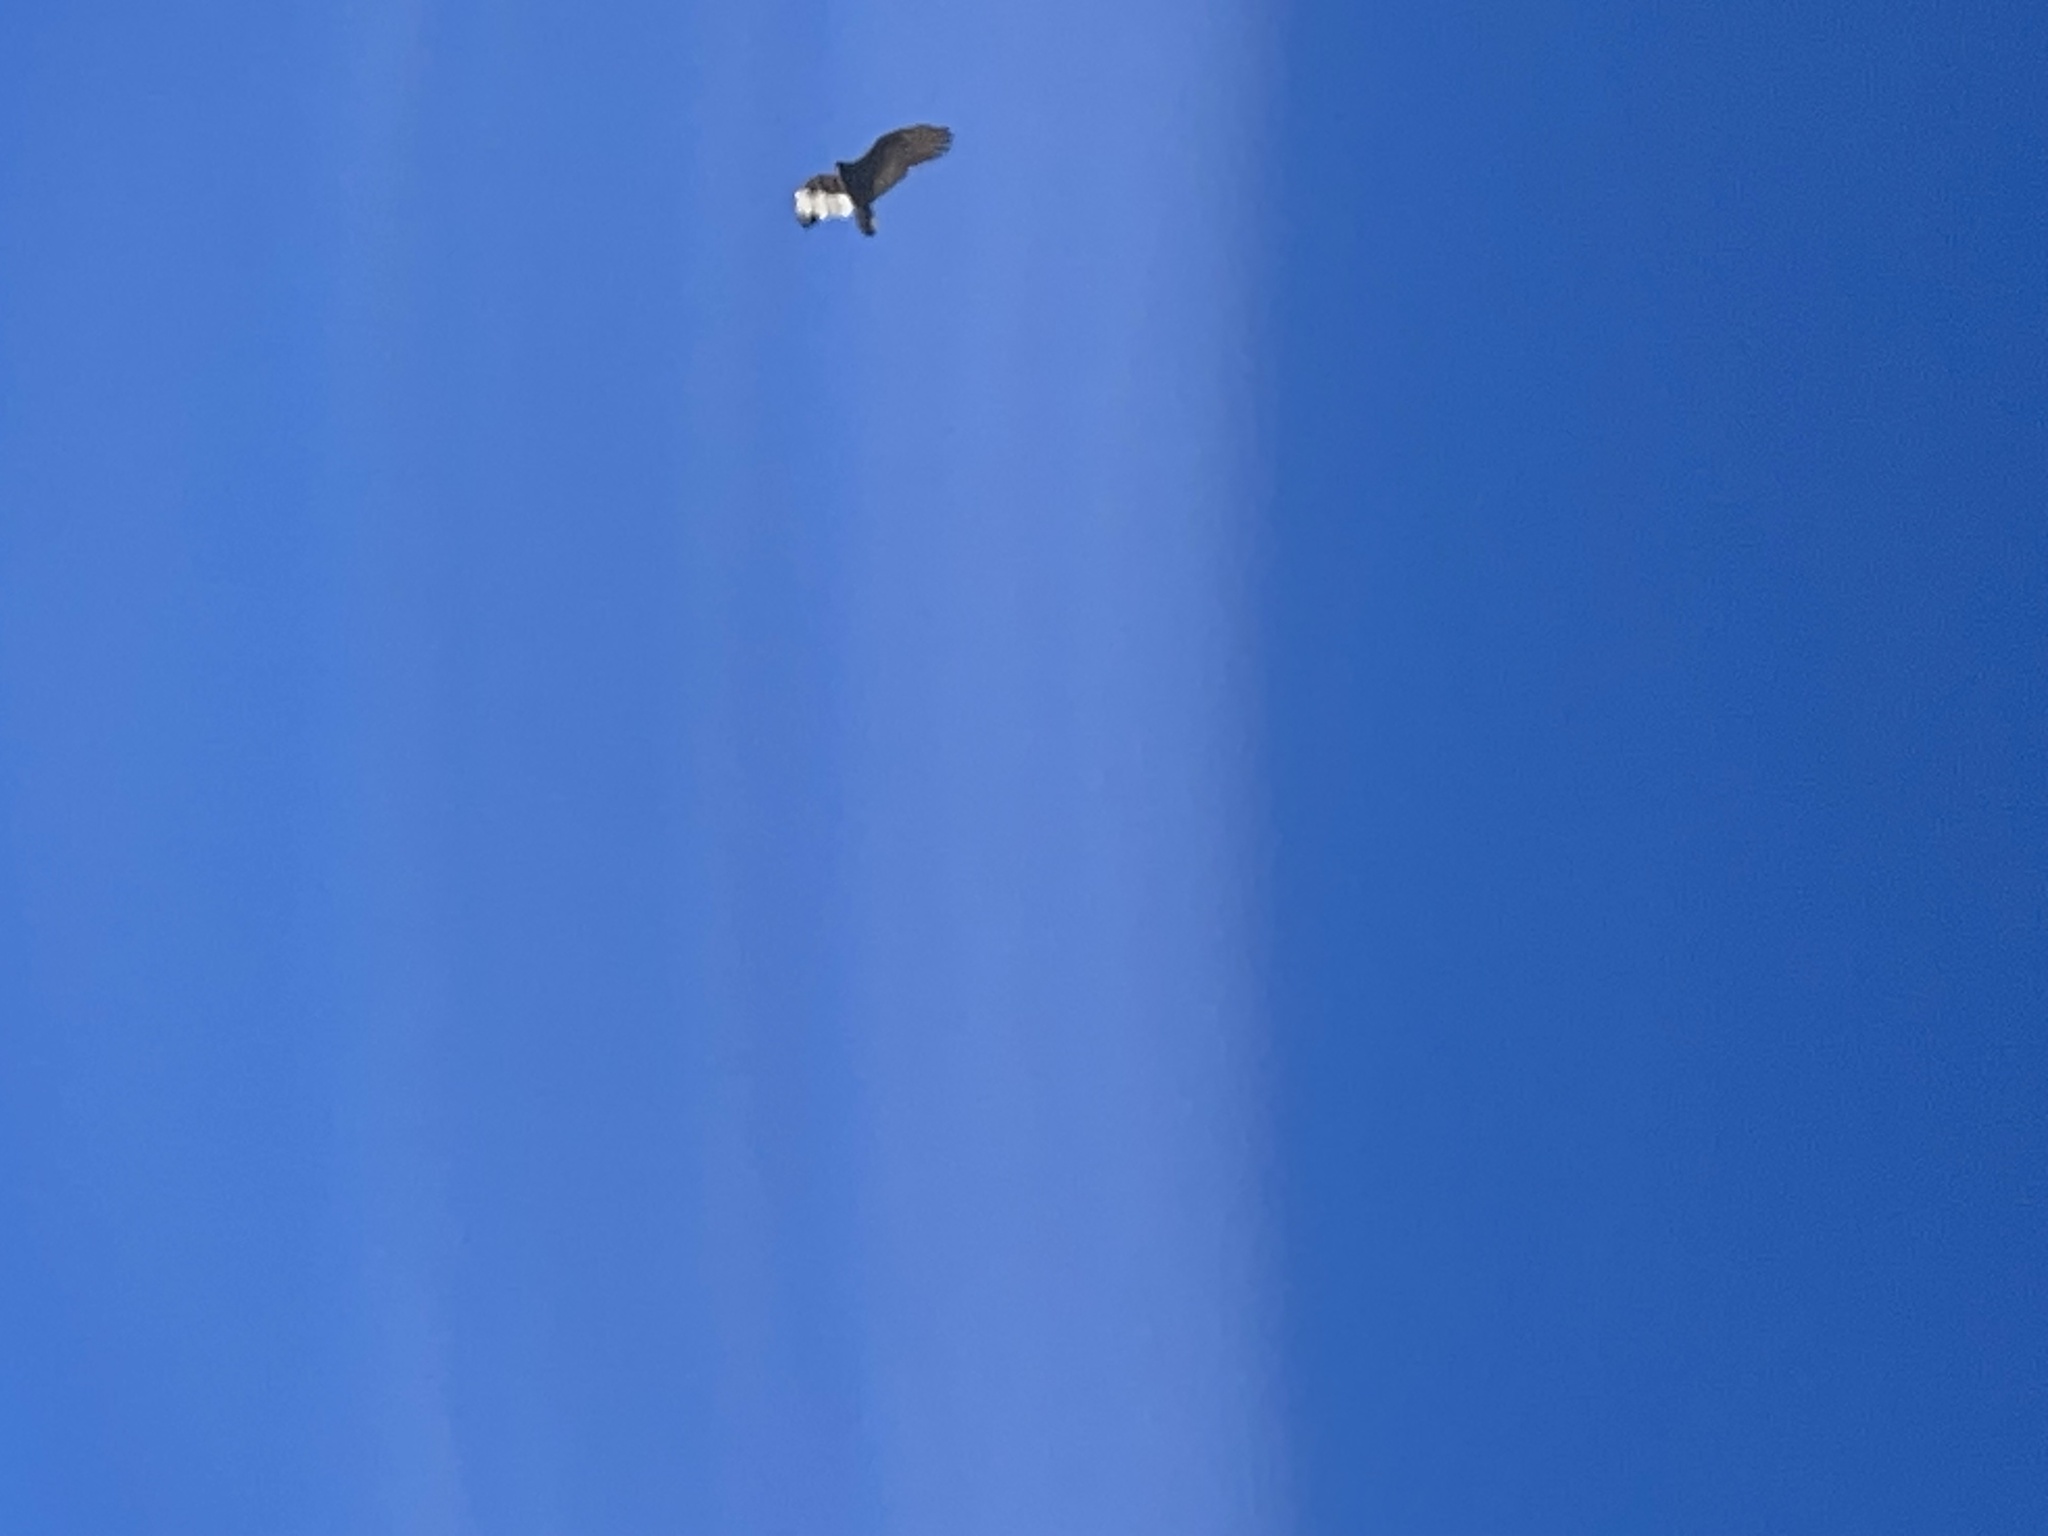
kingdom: Animalia
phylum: Chordata
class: Aves
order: Accipitriformes
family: Cathartidae
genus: Cathartes
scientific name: Cathartes aura
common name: Turkey vulture
